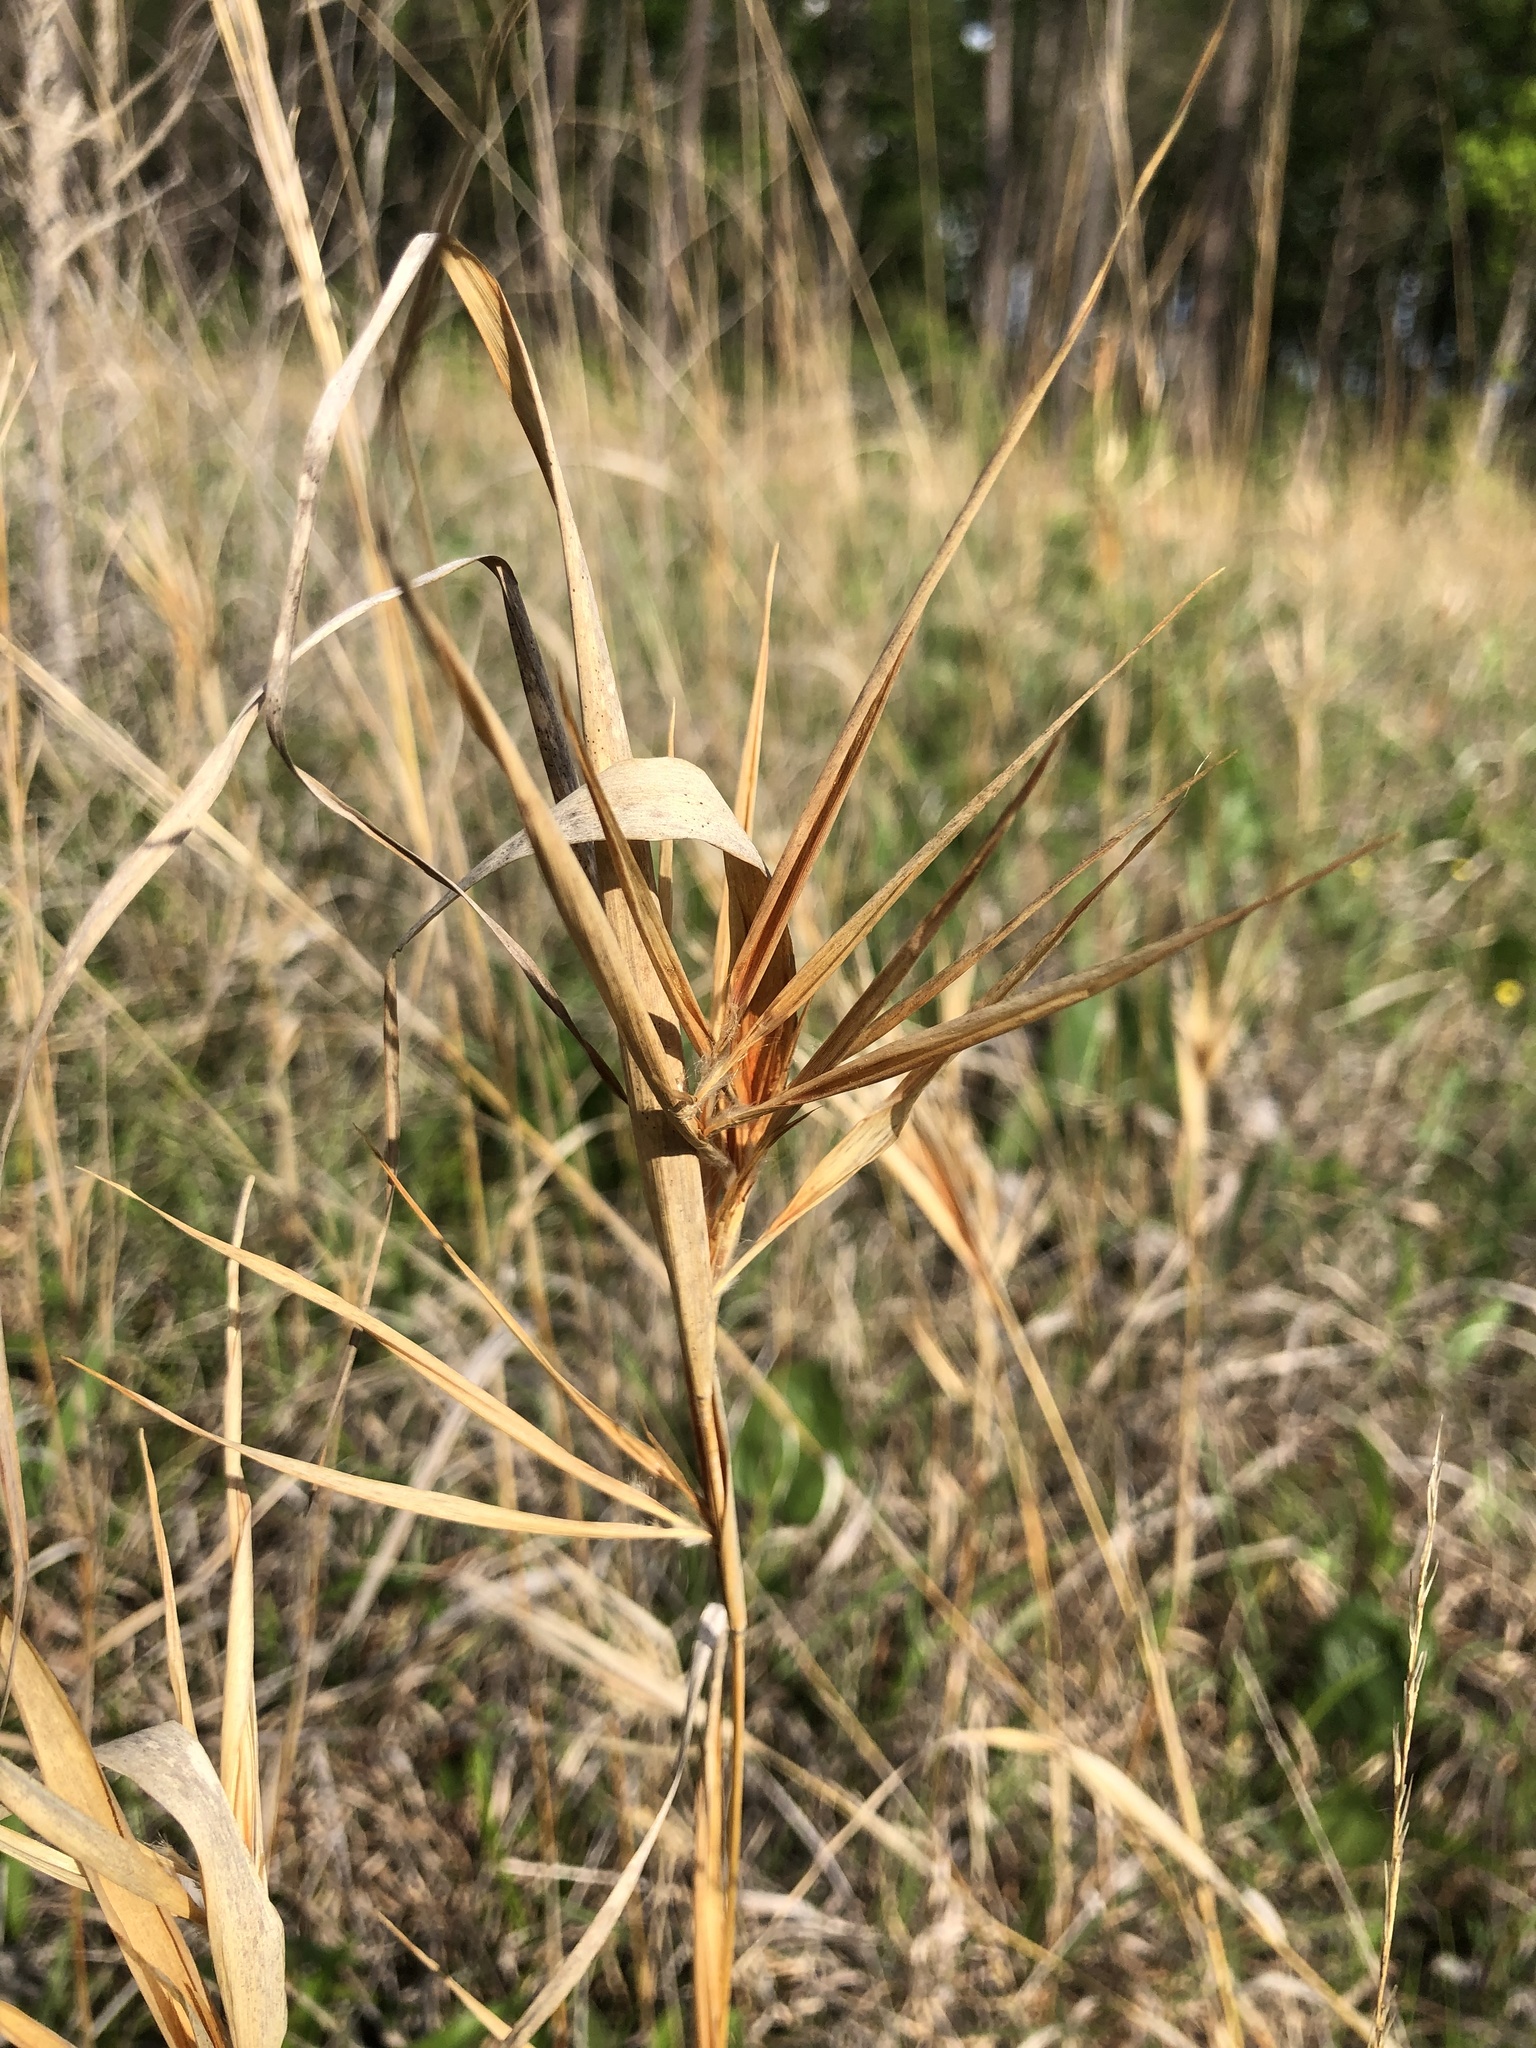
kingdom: Plantae
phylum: Tracheophyta
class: Liliopsida
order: Poales
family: Poaceae
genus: Andropogon
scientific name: Andropogon gyrans
